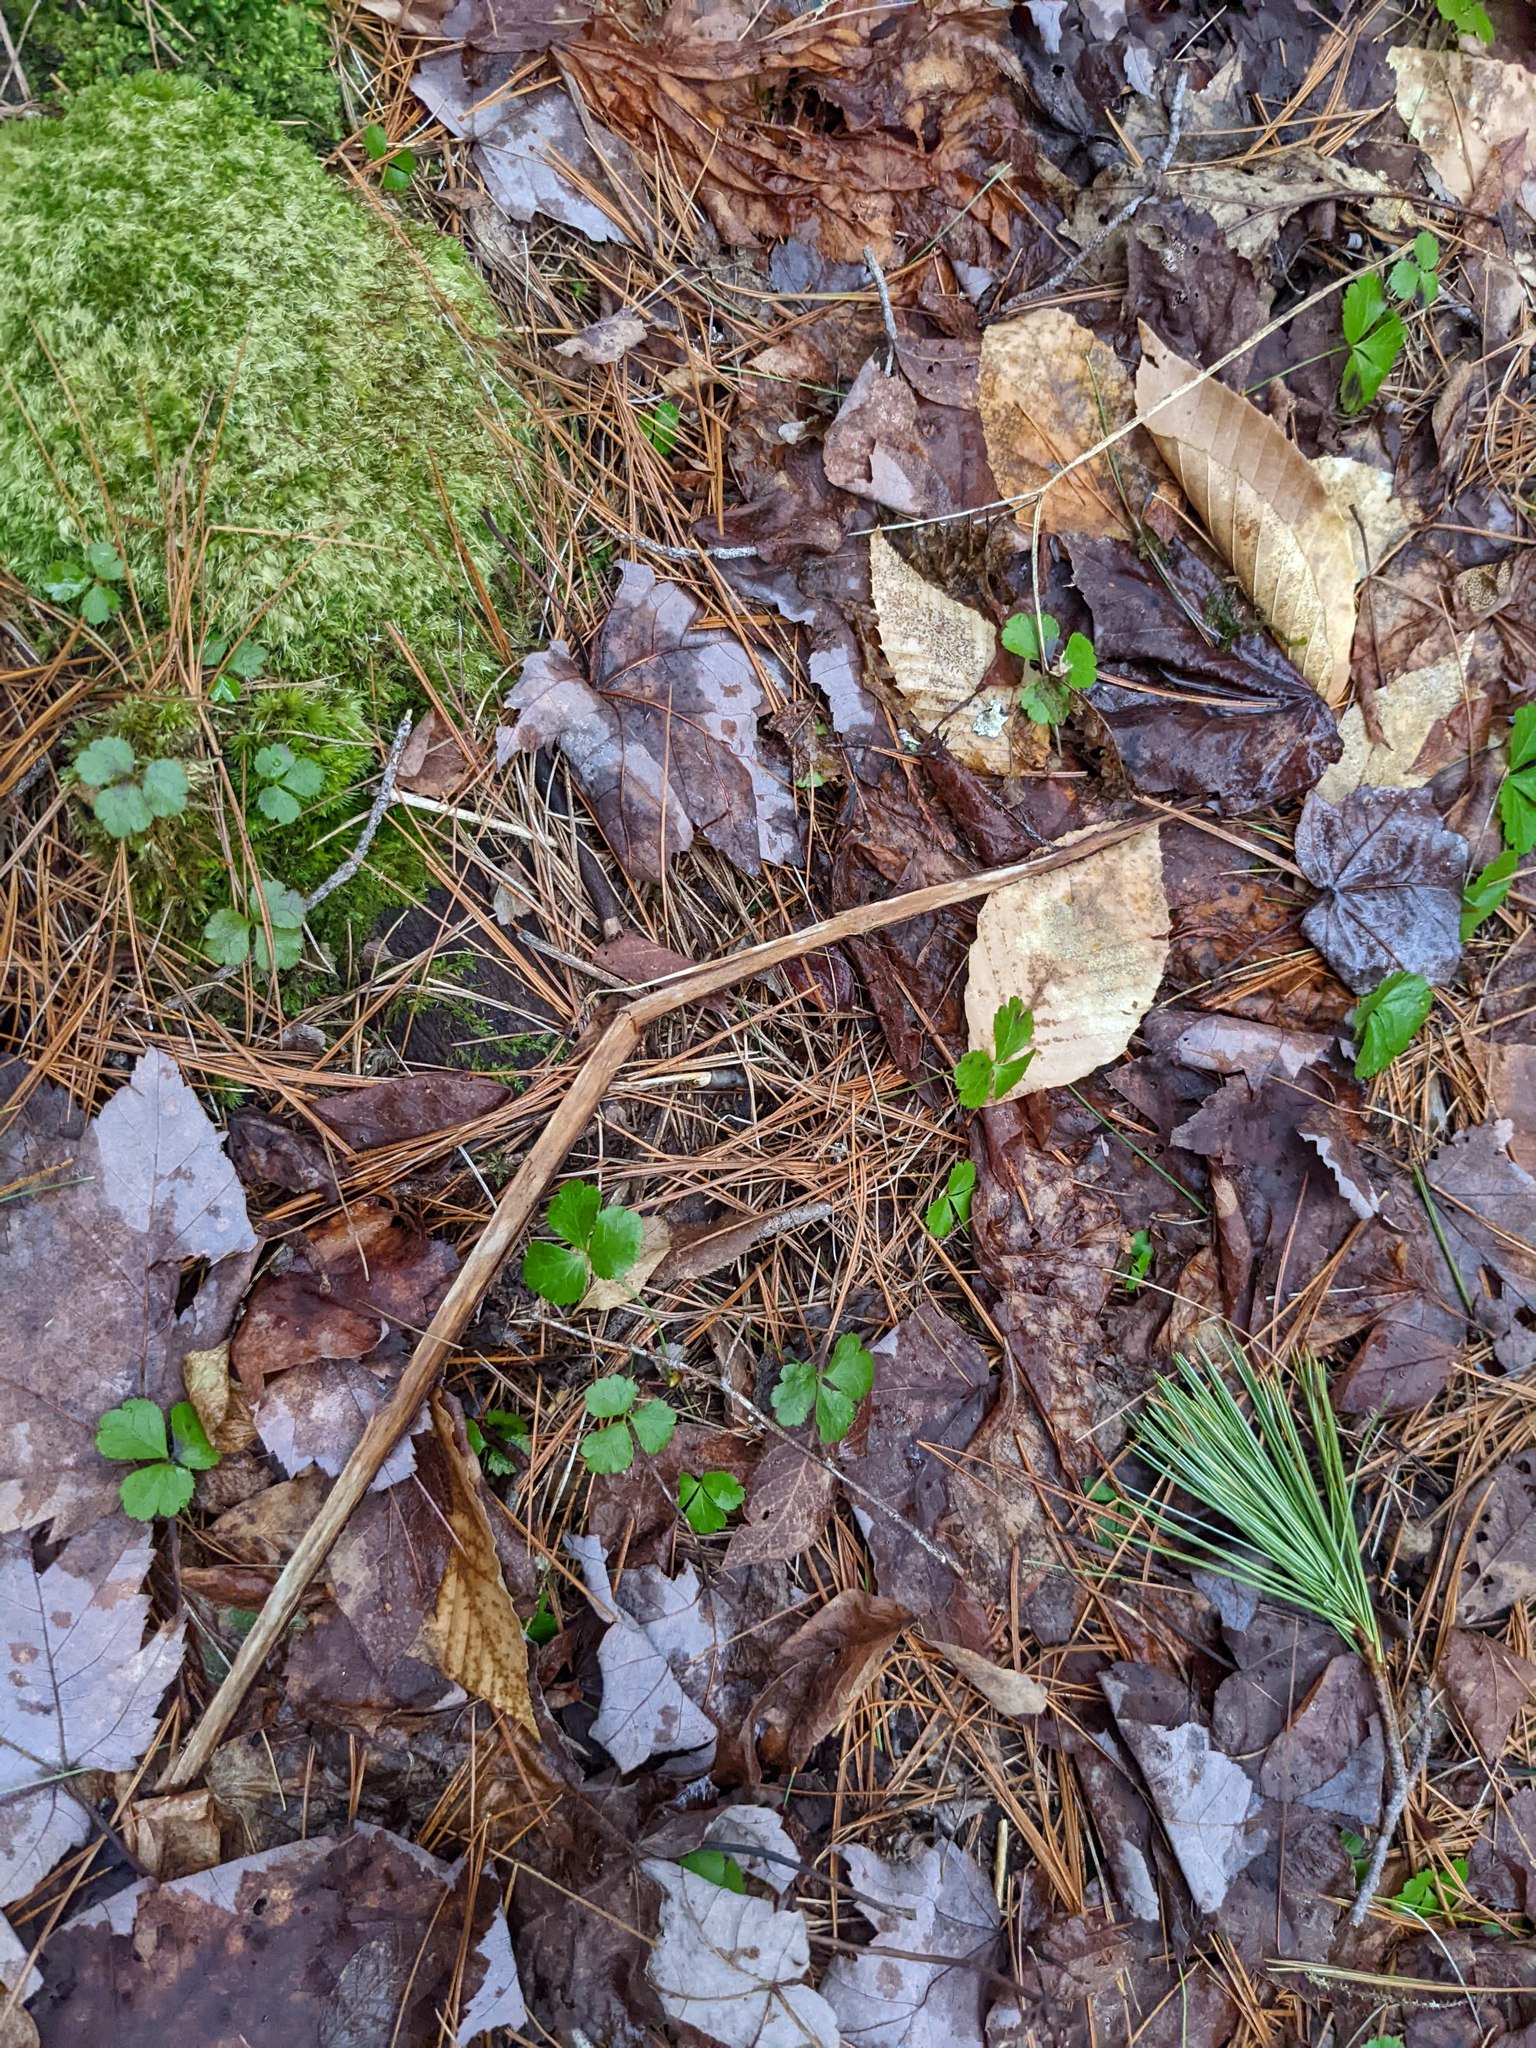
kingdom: Plantae
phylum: Tracheophyta
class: Magnoliopsida
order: Ranunculales
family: Ranunculaceae
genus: Coptis
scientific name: Coptis trifolia
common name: Canker-root
